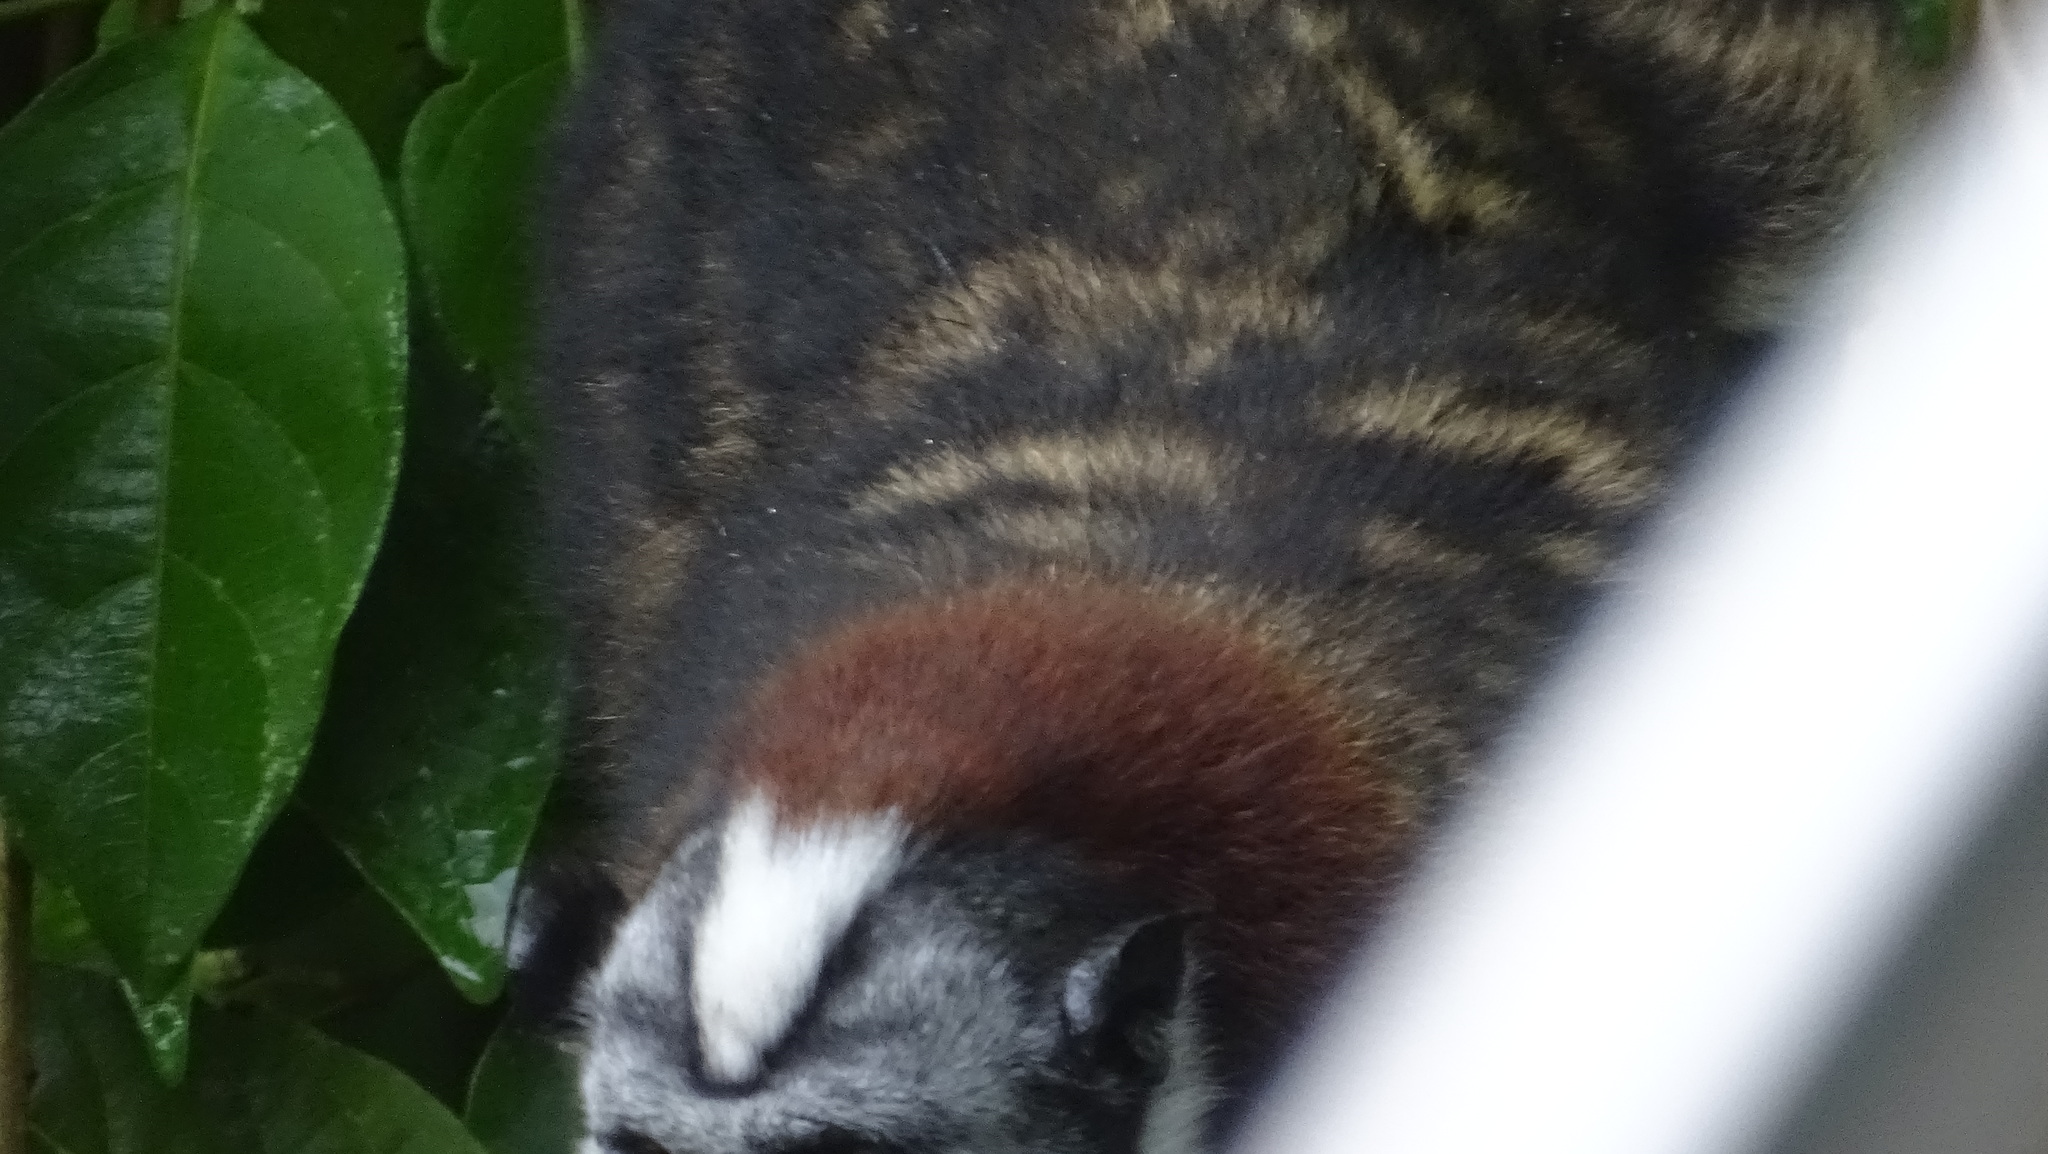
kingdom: Animalia
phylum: Chordata
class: Mammalia
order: Primates
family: Callitrichidae
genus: Saguinus
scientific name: Saguinus geoffroyi
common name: Geoffroy s tamarin
